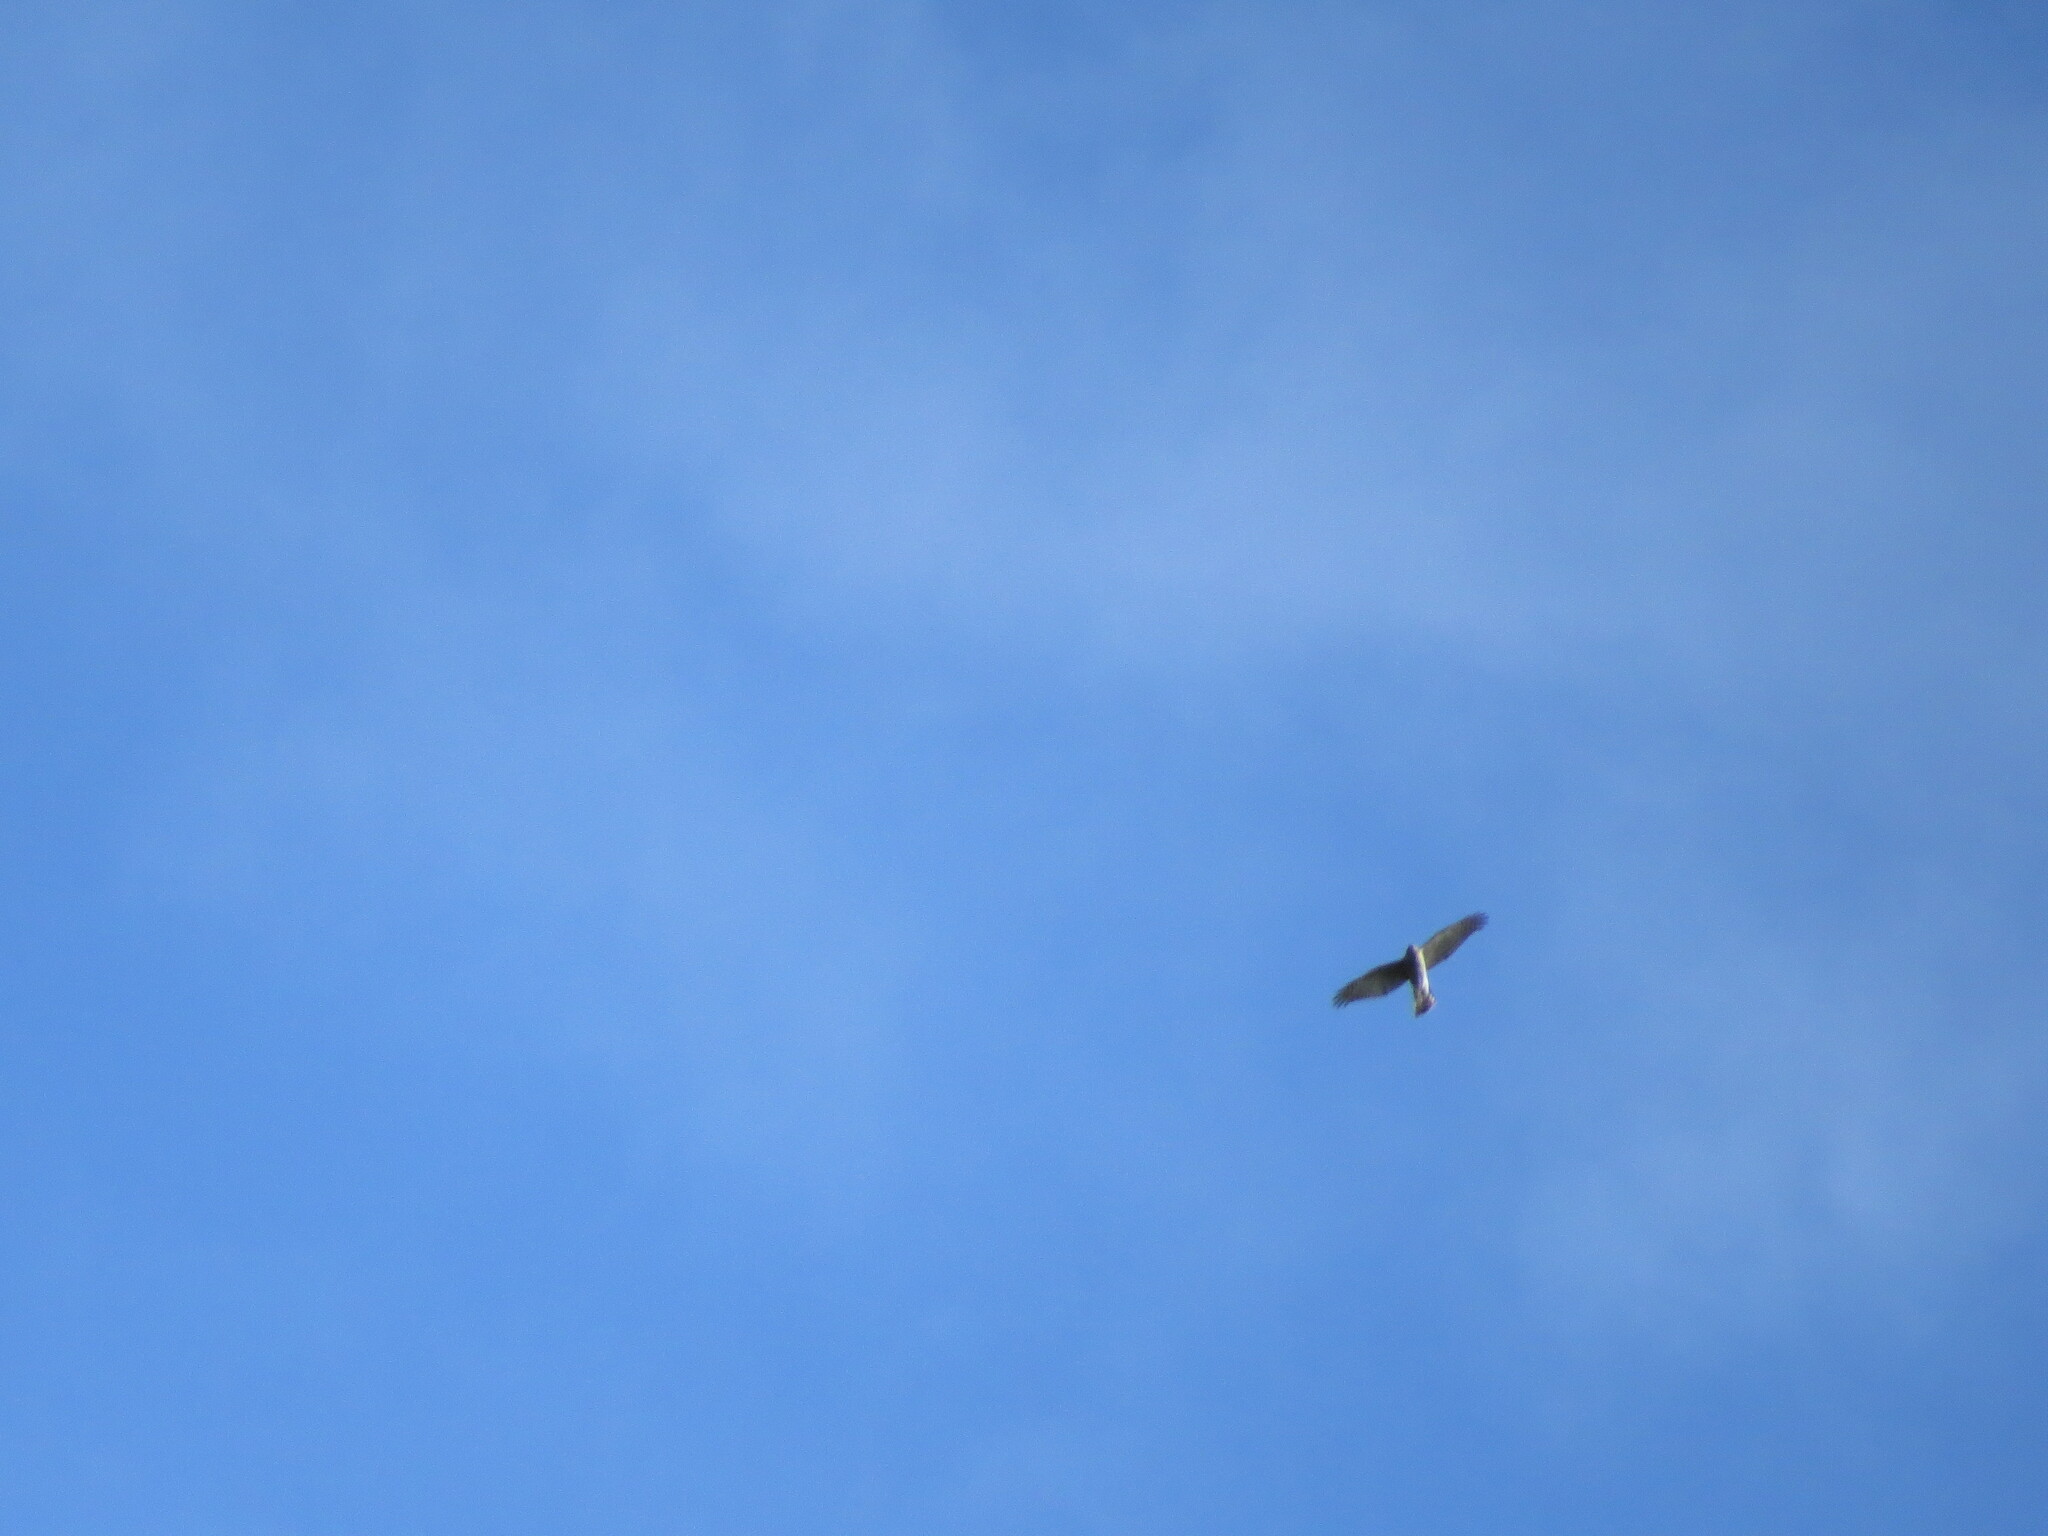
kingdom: Animalia
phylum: Chordata
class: Aves
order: Accipitriformes
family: Accipitridae
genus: Accipiter
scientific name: Accipiter nisus
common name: Eurasian sparrowhawk
